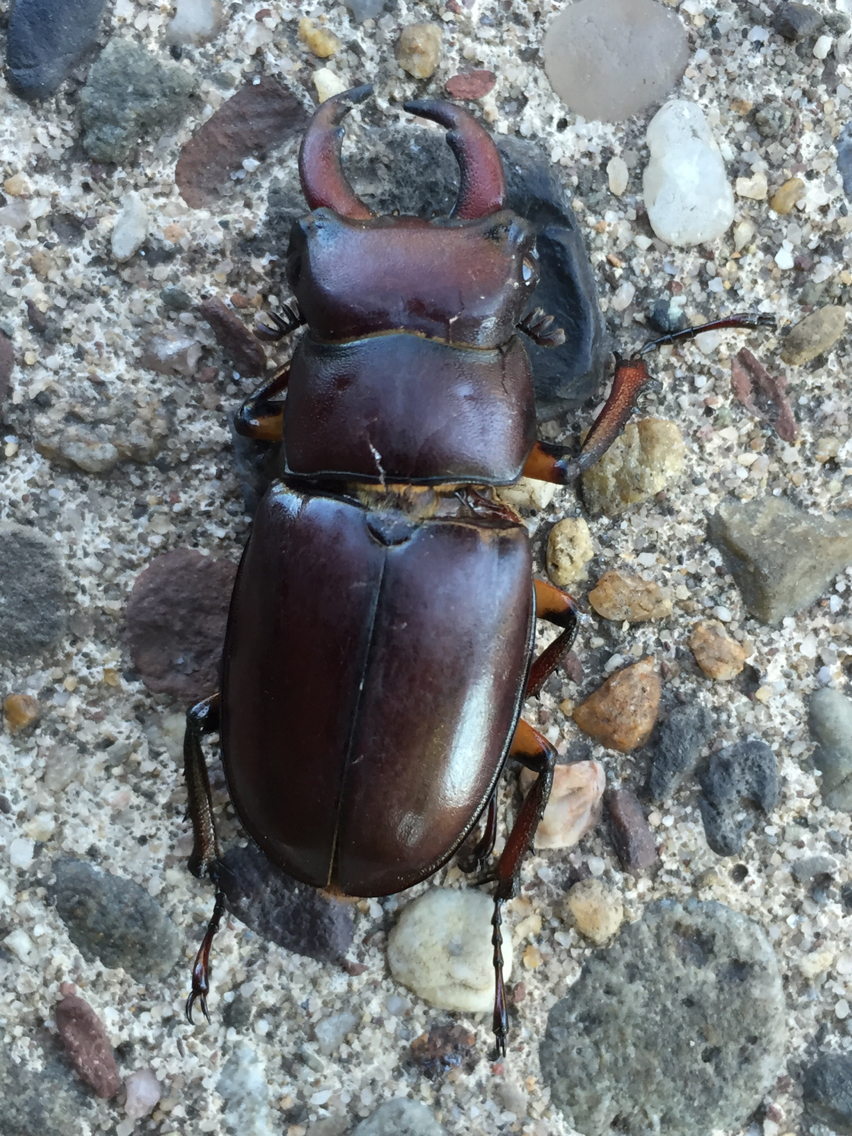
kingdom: Animalia
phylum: Arthropoda
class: Insecta
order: Coleoptera
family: Lucanidae
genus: Lucanus
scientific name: Lucanus capreolus
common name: Stag beetle
